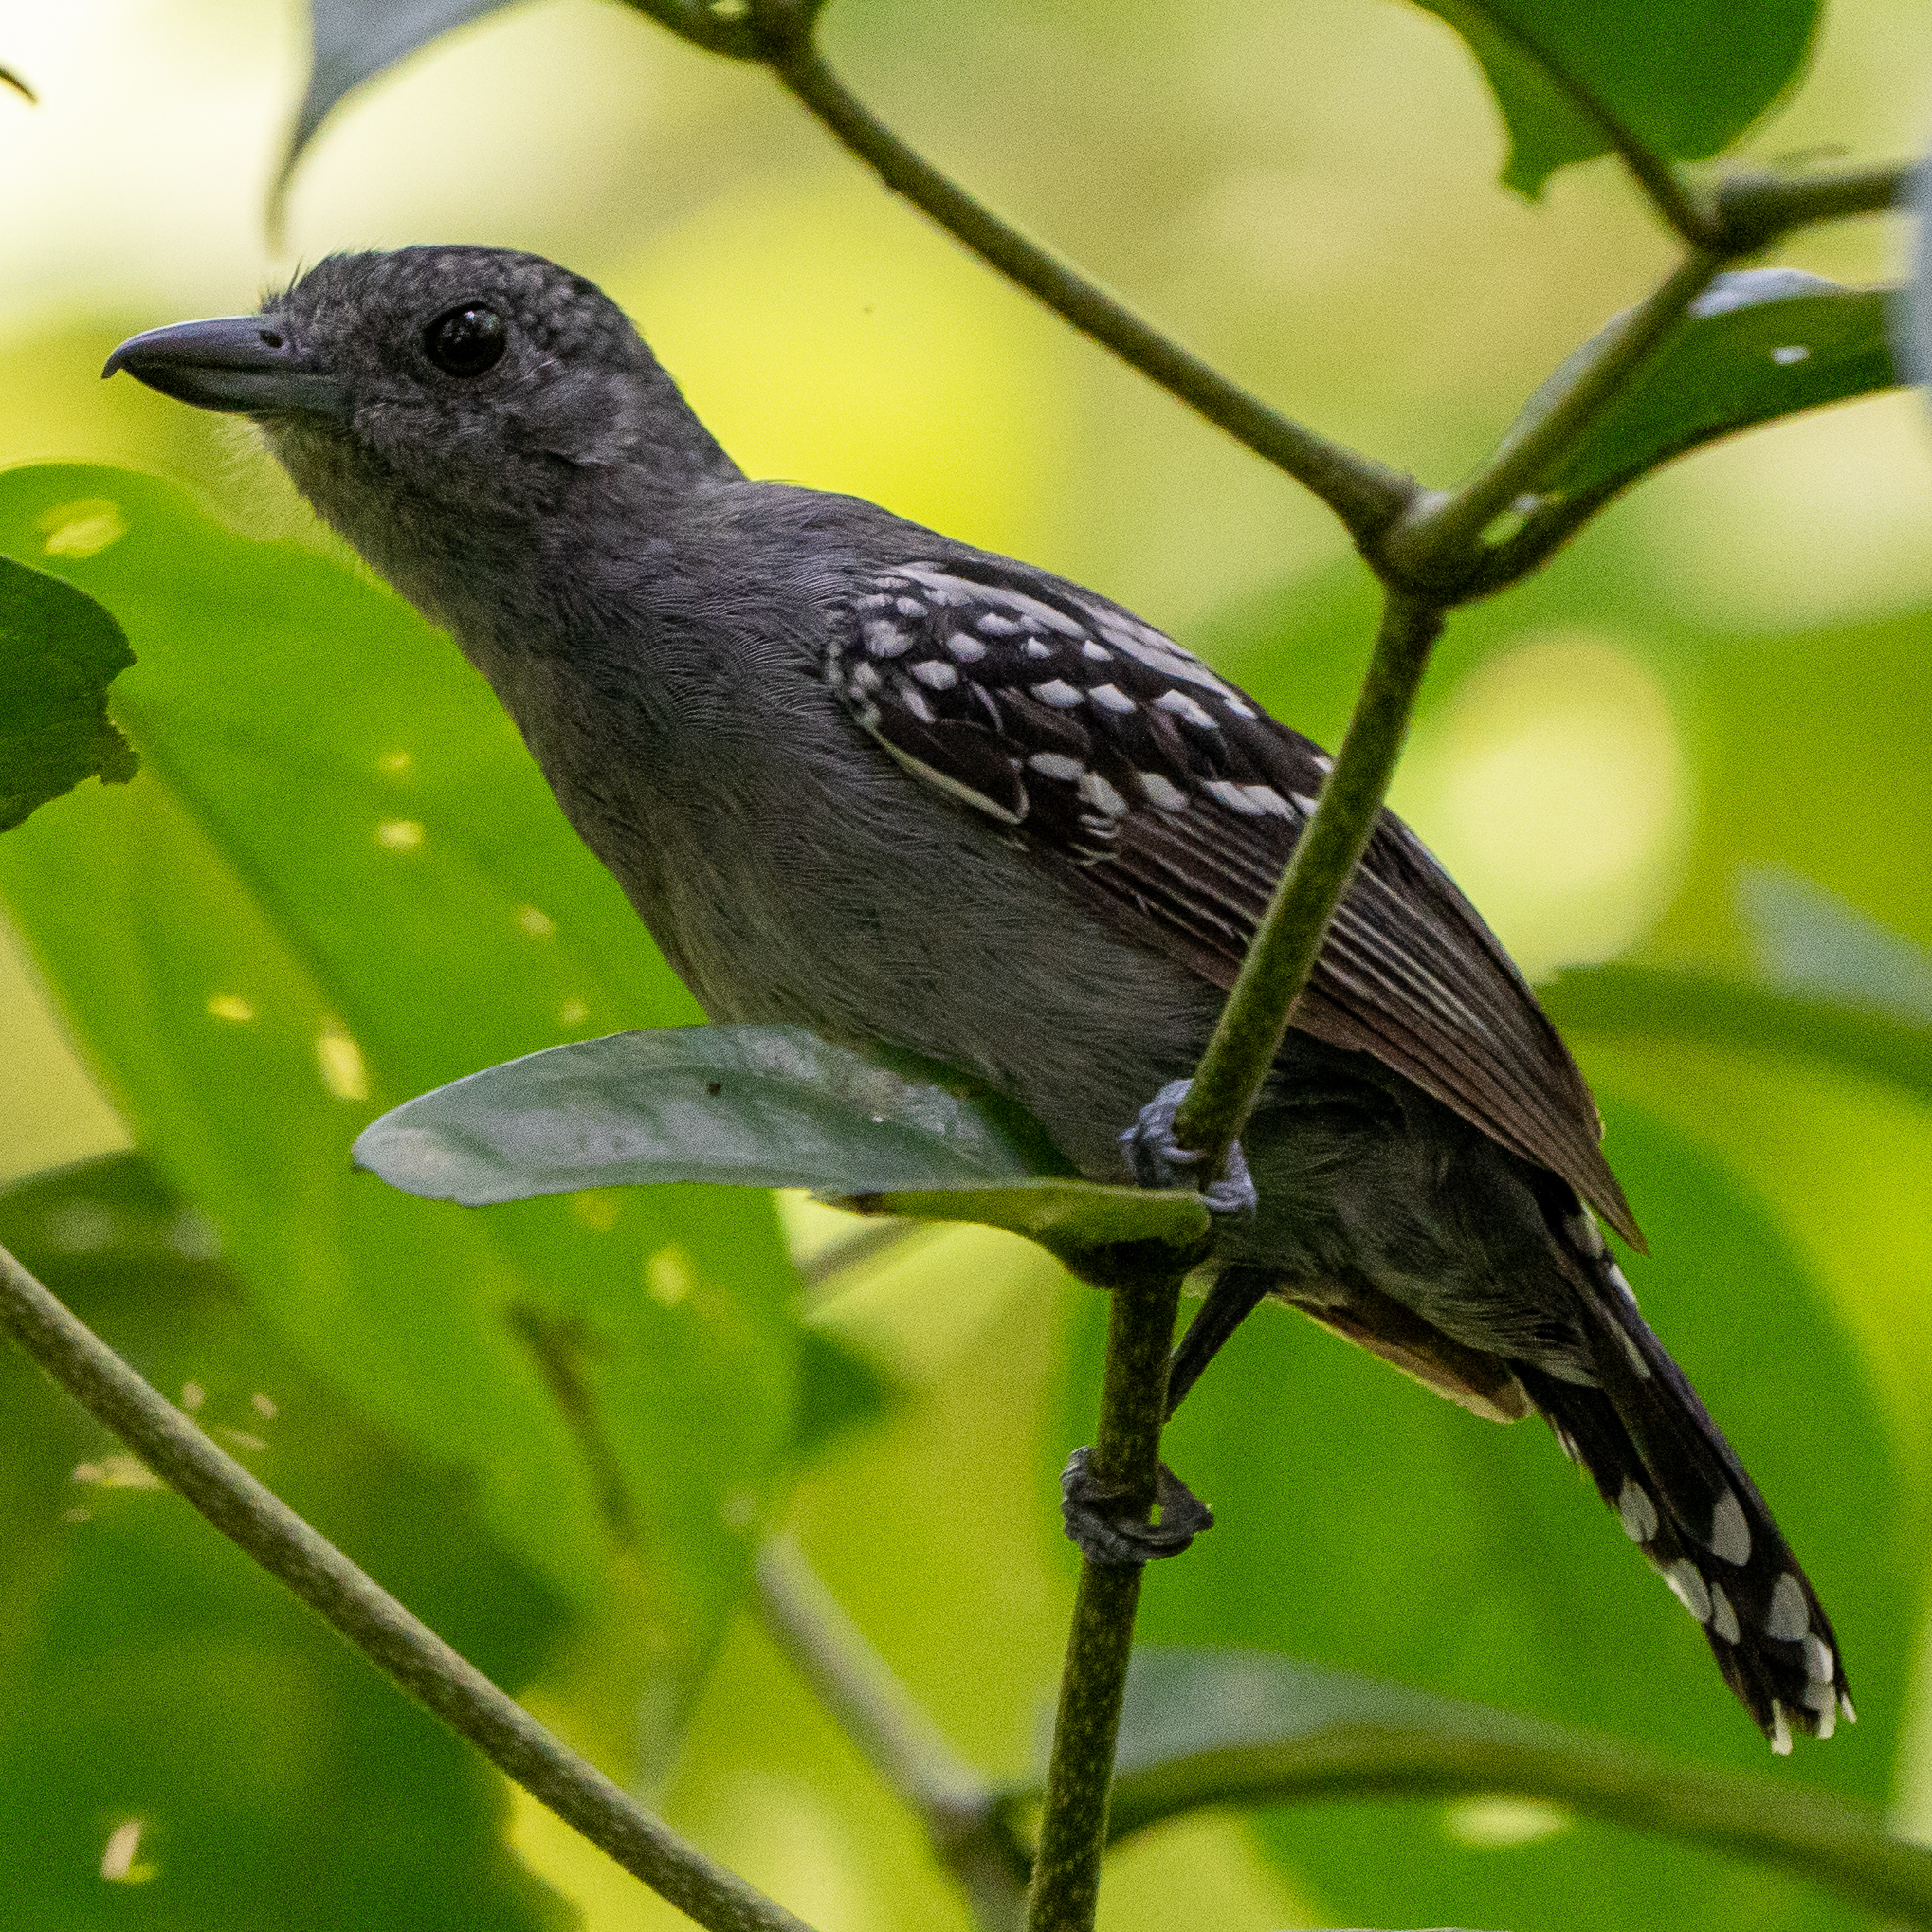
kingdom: Animalia
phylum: Chordata
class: Aves
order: Passeriformes
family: Thamnophilidae
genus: Thamnophilus
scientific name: Thamnophilus atrinucha
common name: Black-crowned antshrike
